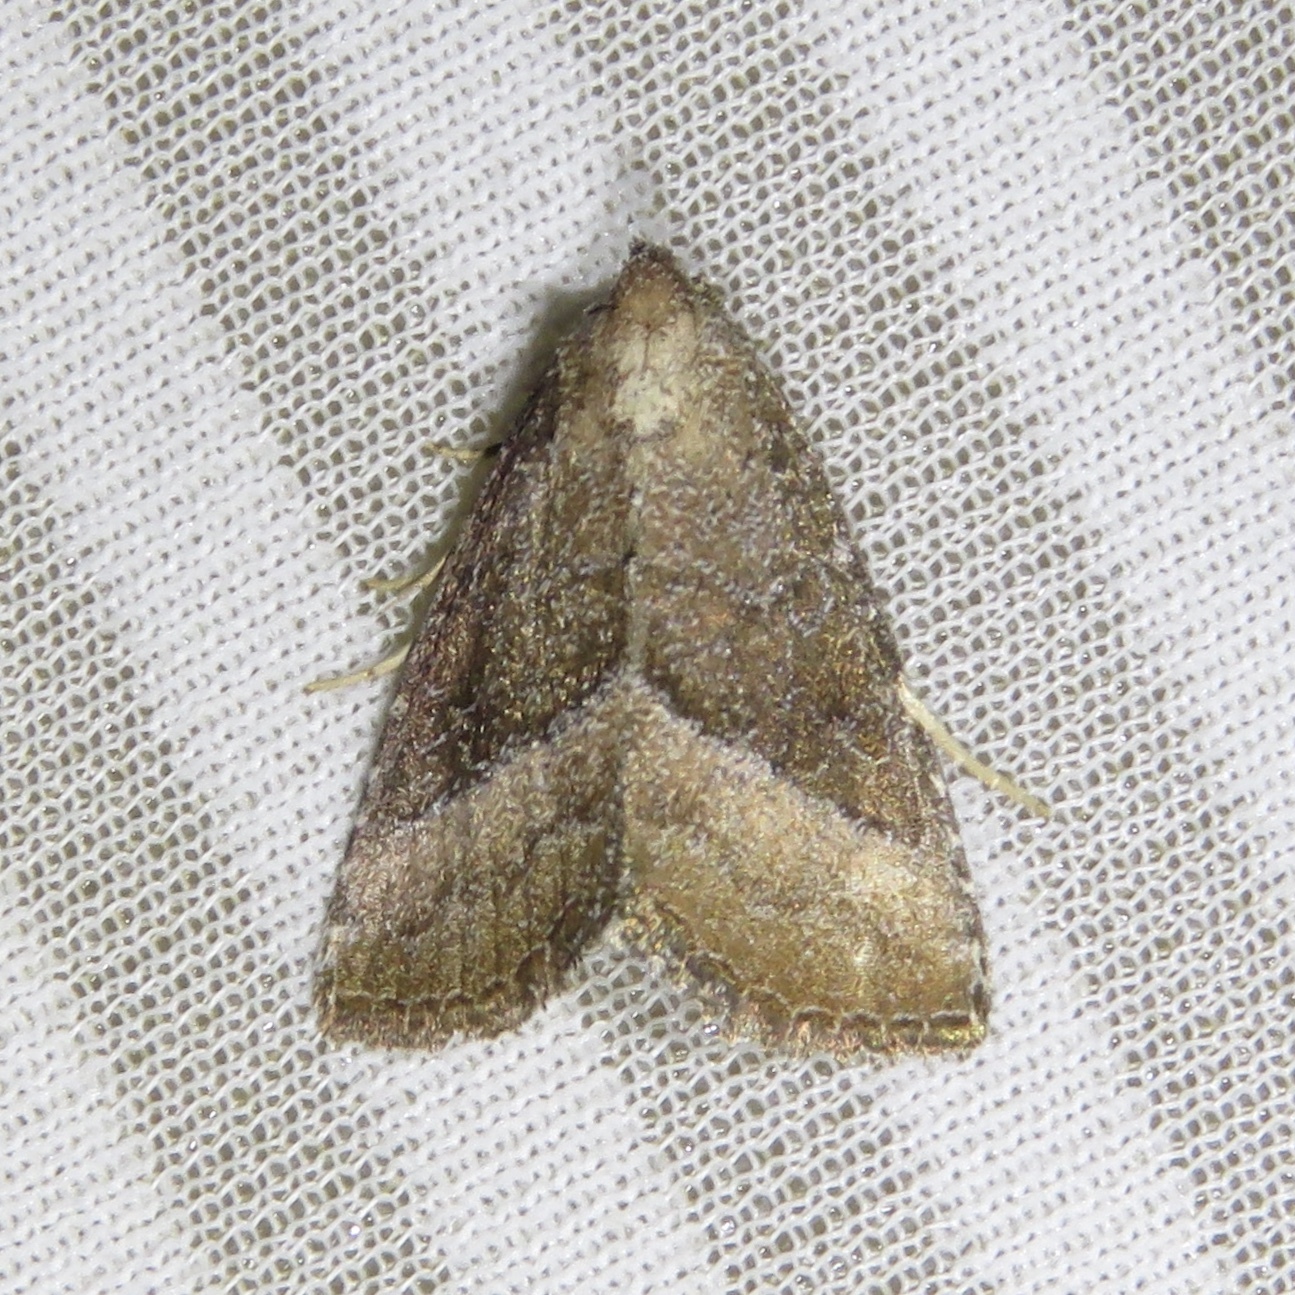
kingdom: Animalia
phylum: Arthropoda
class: Insecta
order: Lepidoptera
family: Noctuidae
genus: Ogdoconta
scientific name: Ogdoconta cinereola
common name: Common pinkband
